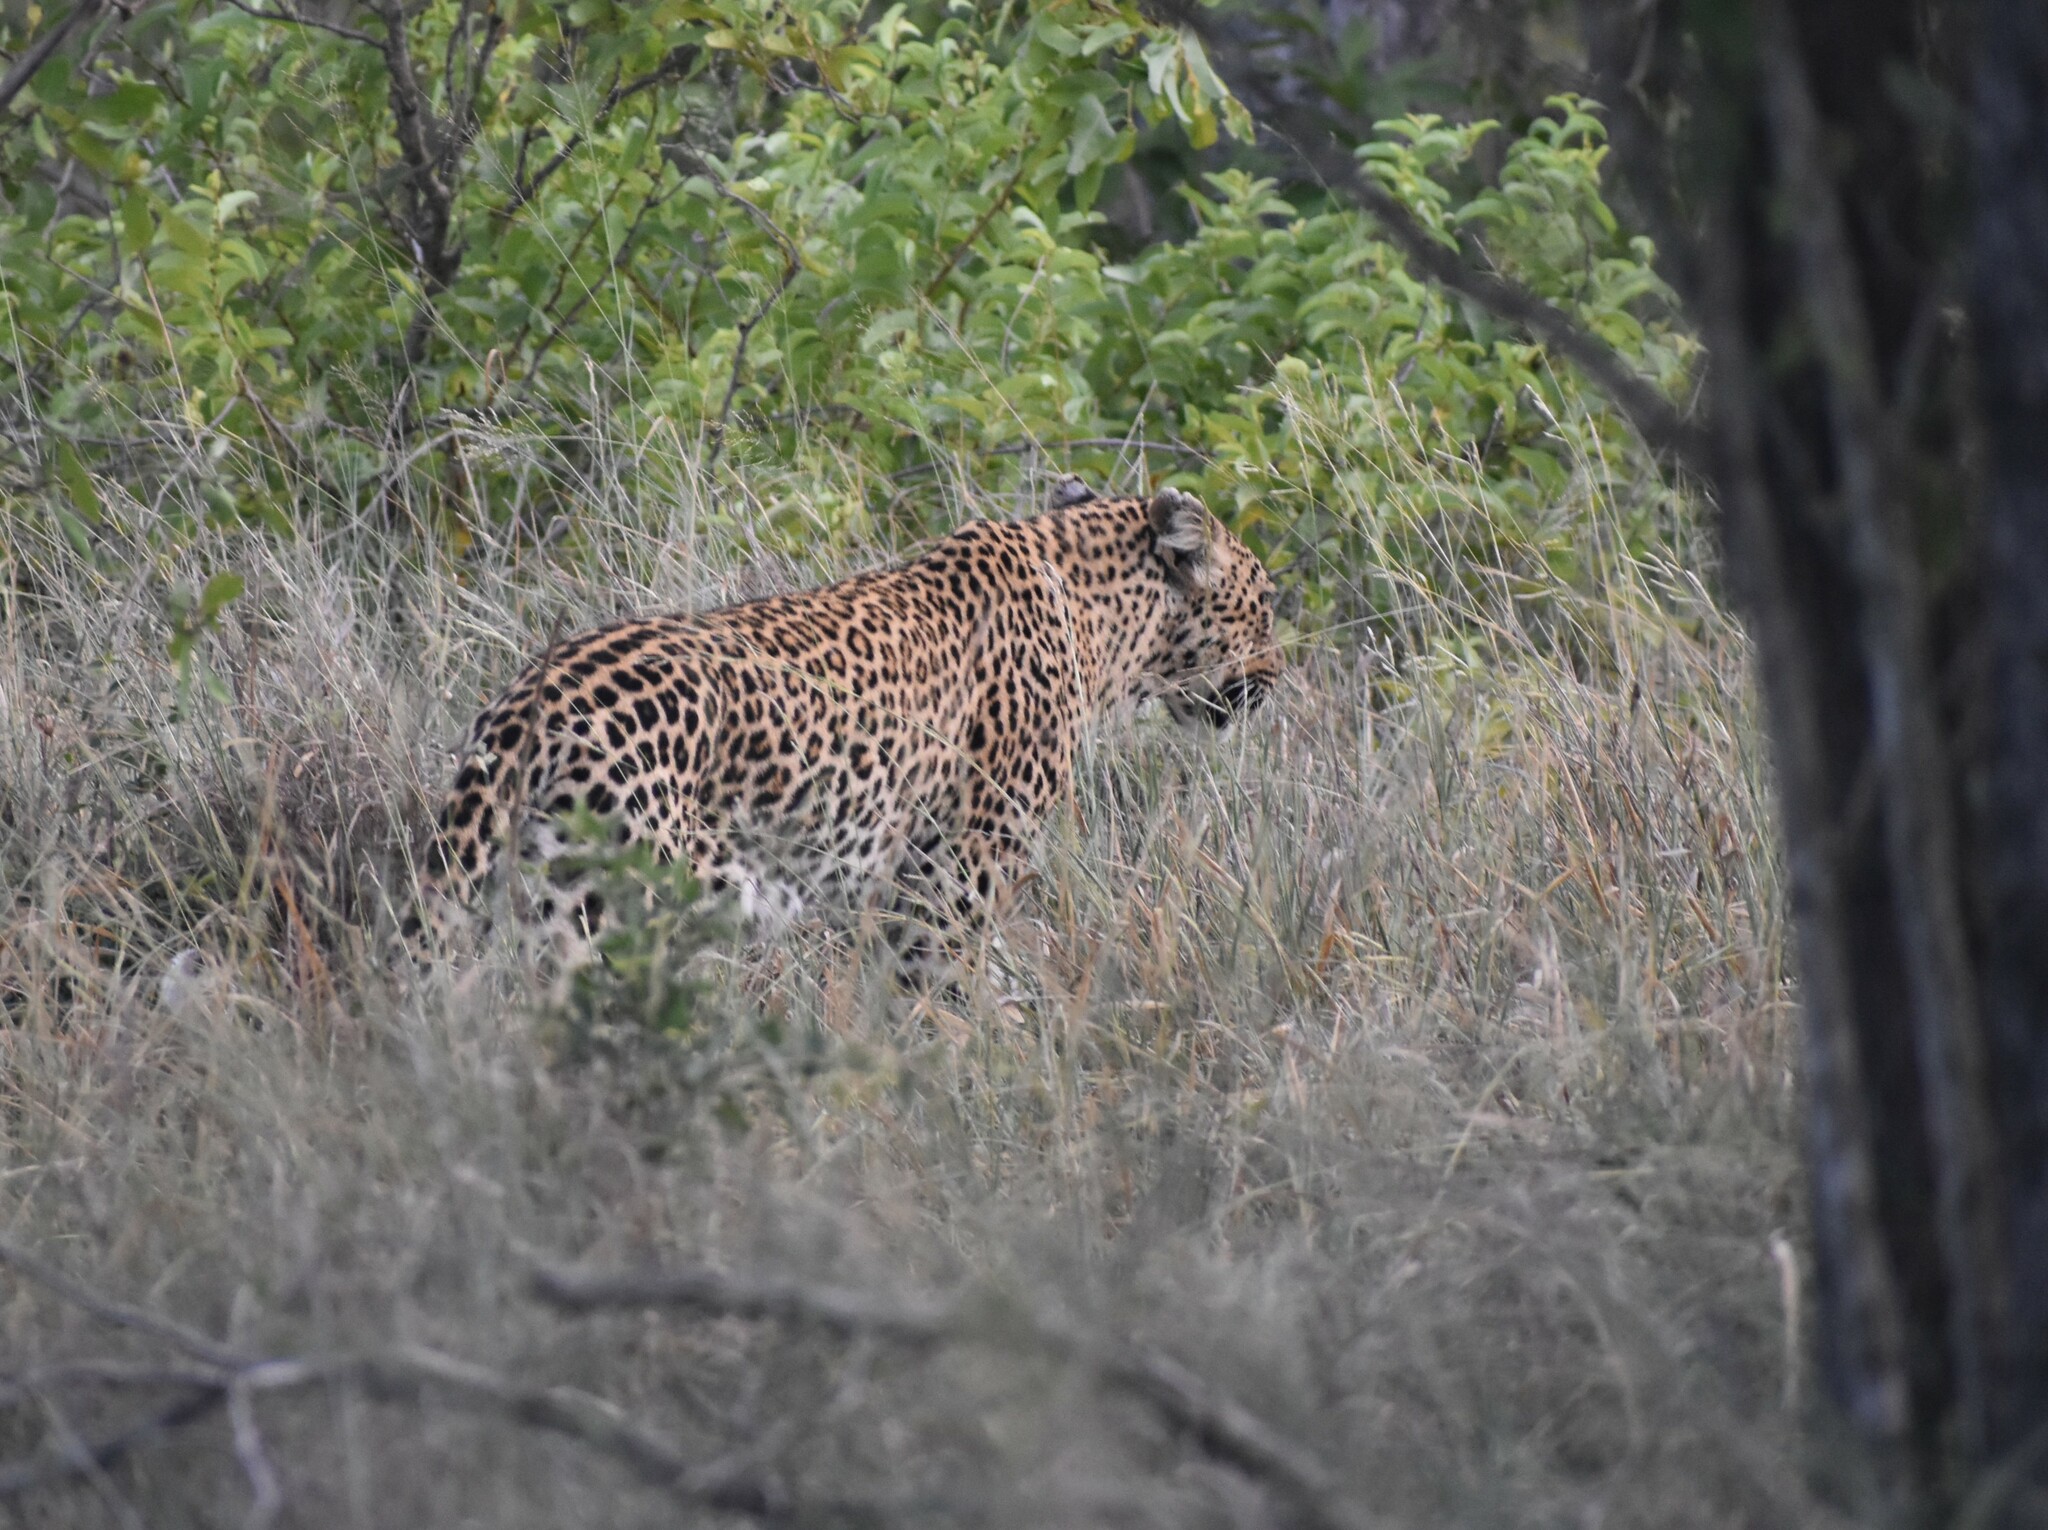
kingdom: Animalia
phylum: Chordata
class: Mammalia
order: Carnivora
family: Felidae
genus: Panthera
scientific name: Panthera pardus
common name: Leopard
